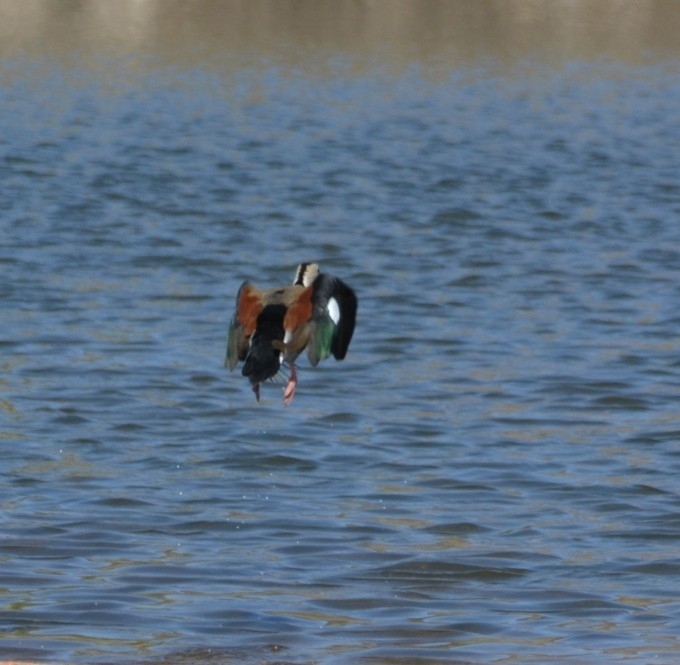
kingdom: Animalia
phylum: Chordata
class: Aves
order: Anseriformes
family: Anatidae
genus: Callonetta
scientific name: Callonetta leucophrys
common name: Ringed teal
